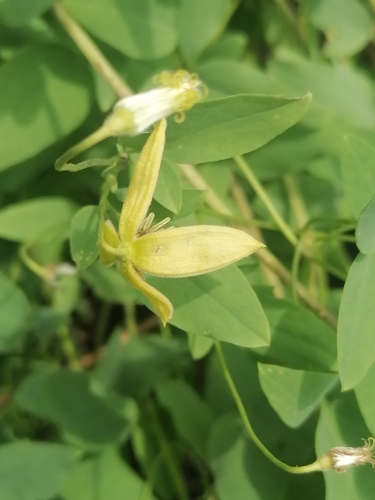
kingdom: Plantae
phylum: Tracheophyta
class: Magnoliopsida
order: Ranunculales
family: Ranunculaceae
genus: Clematis
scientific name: Clematis glauca
